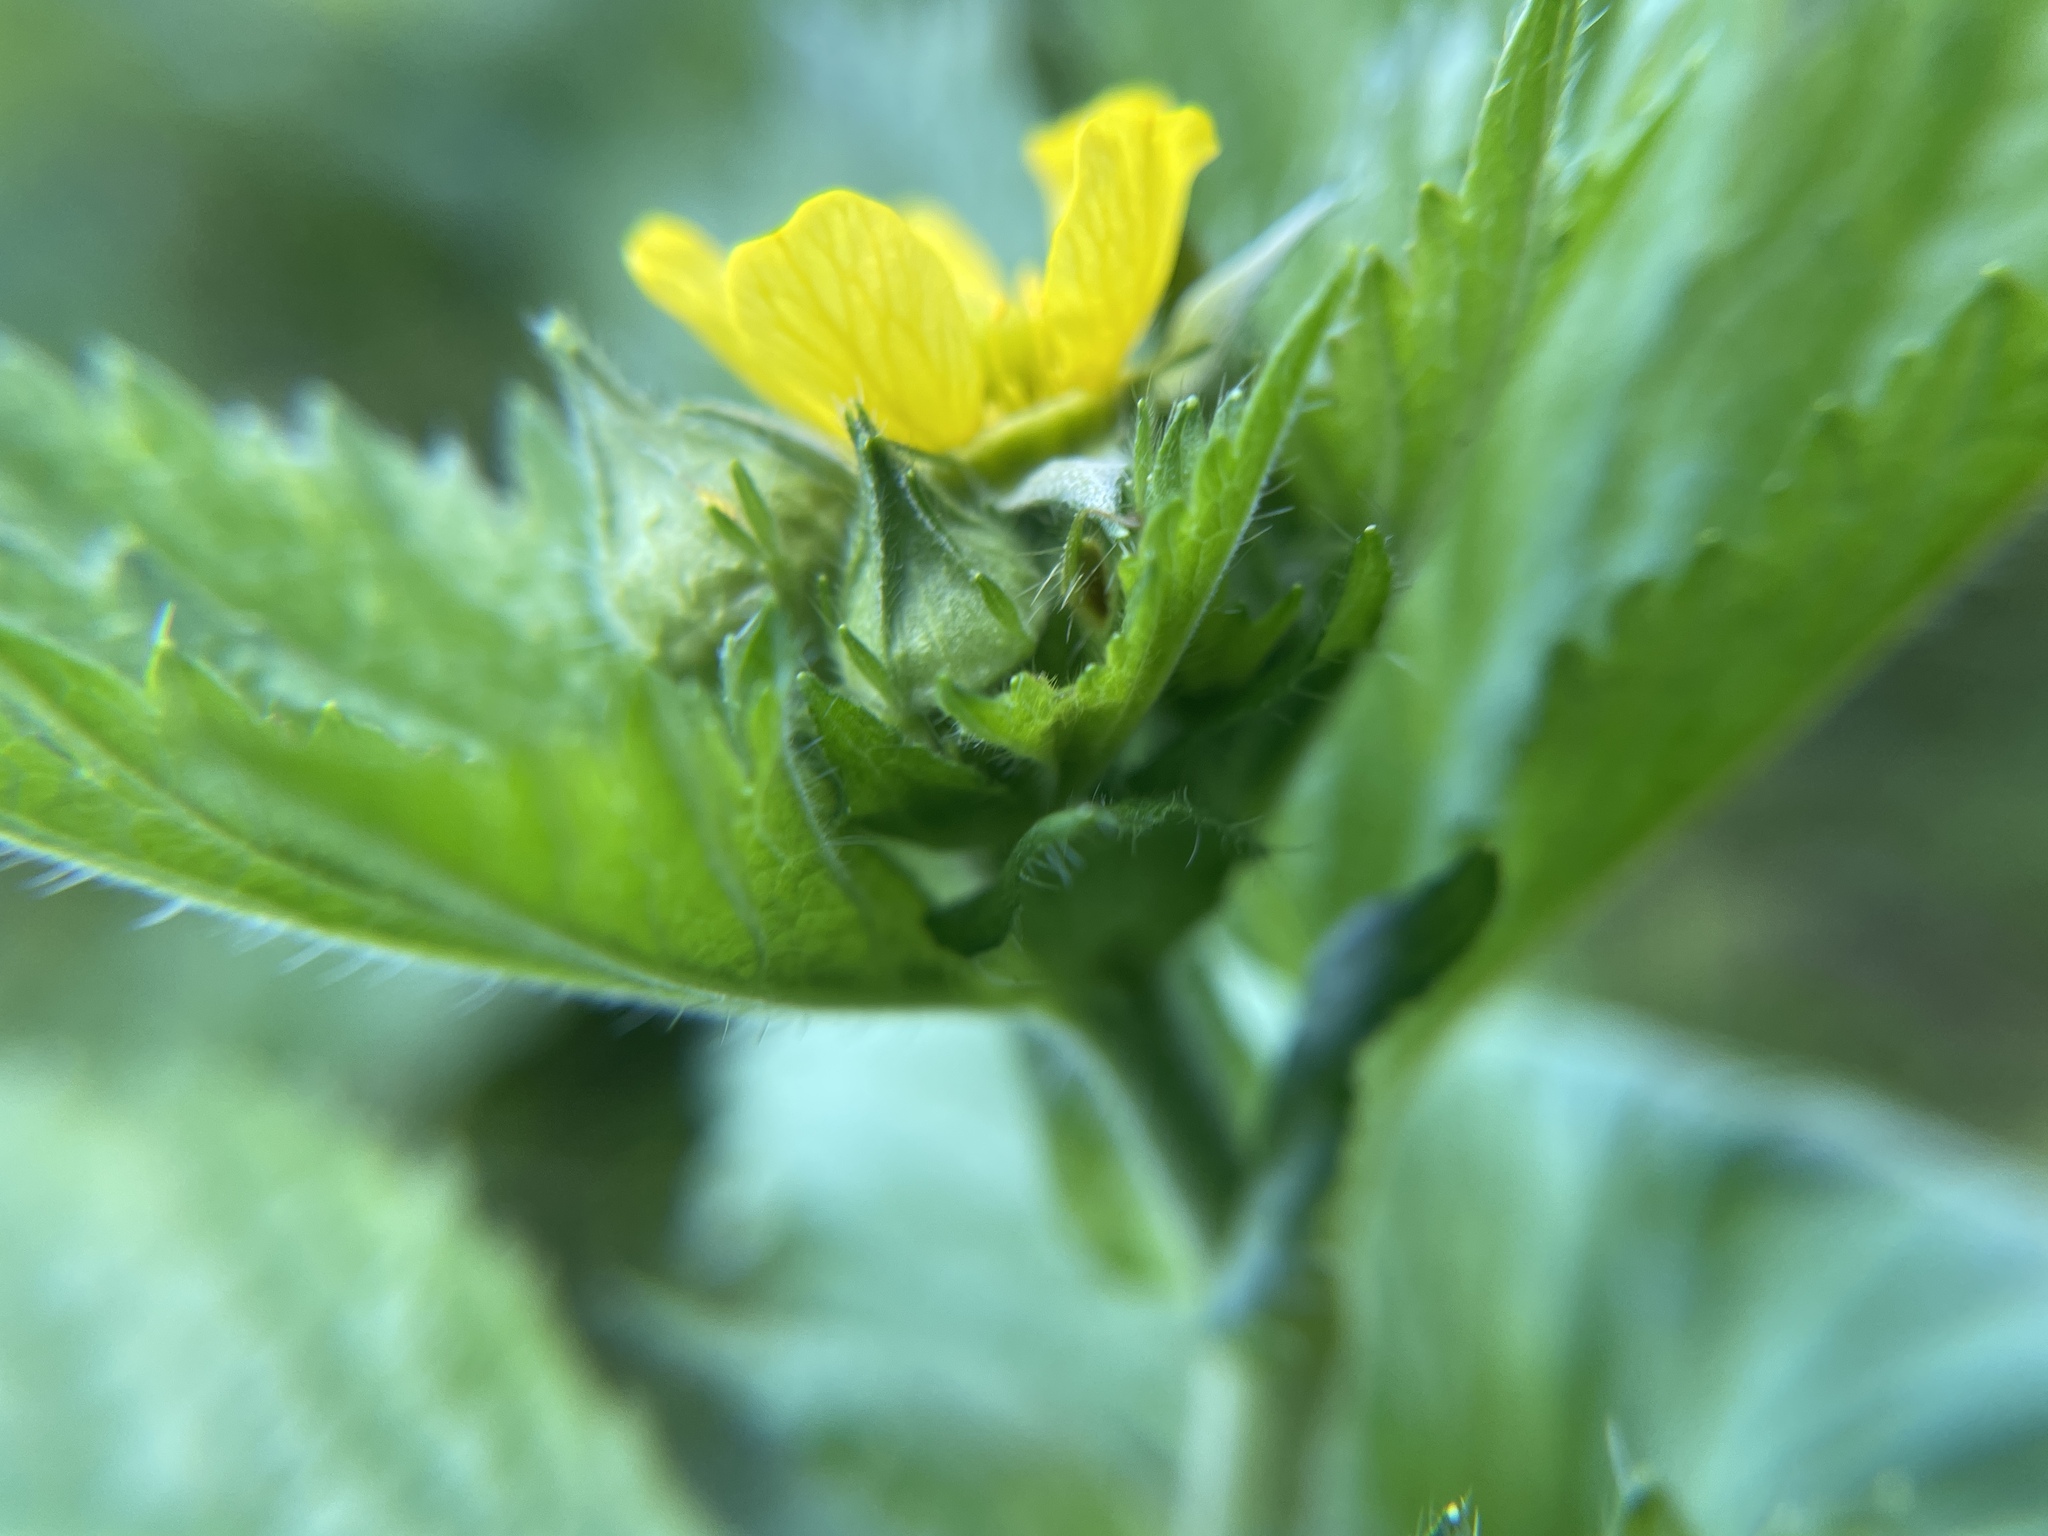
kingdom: Plantae
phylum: Tracheophyta
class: Magnoliopsida
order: Rosales
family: Rosaceae
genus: Geum
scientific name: Geum macrophyllum
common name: Large-leaved avens
